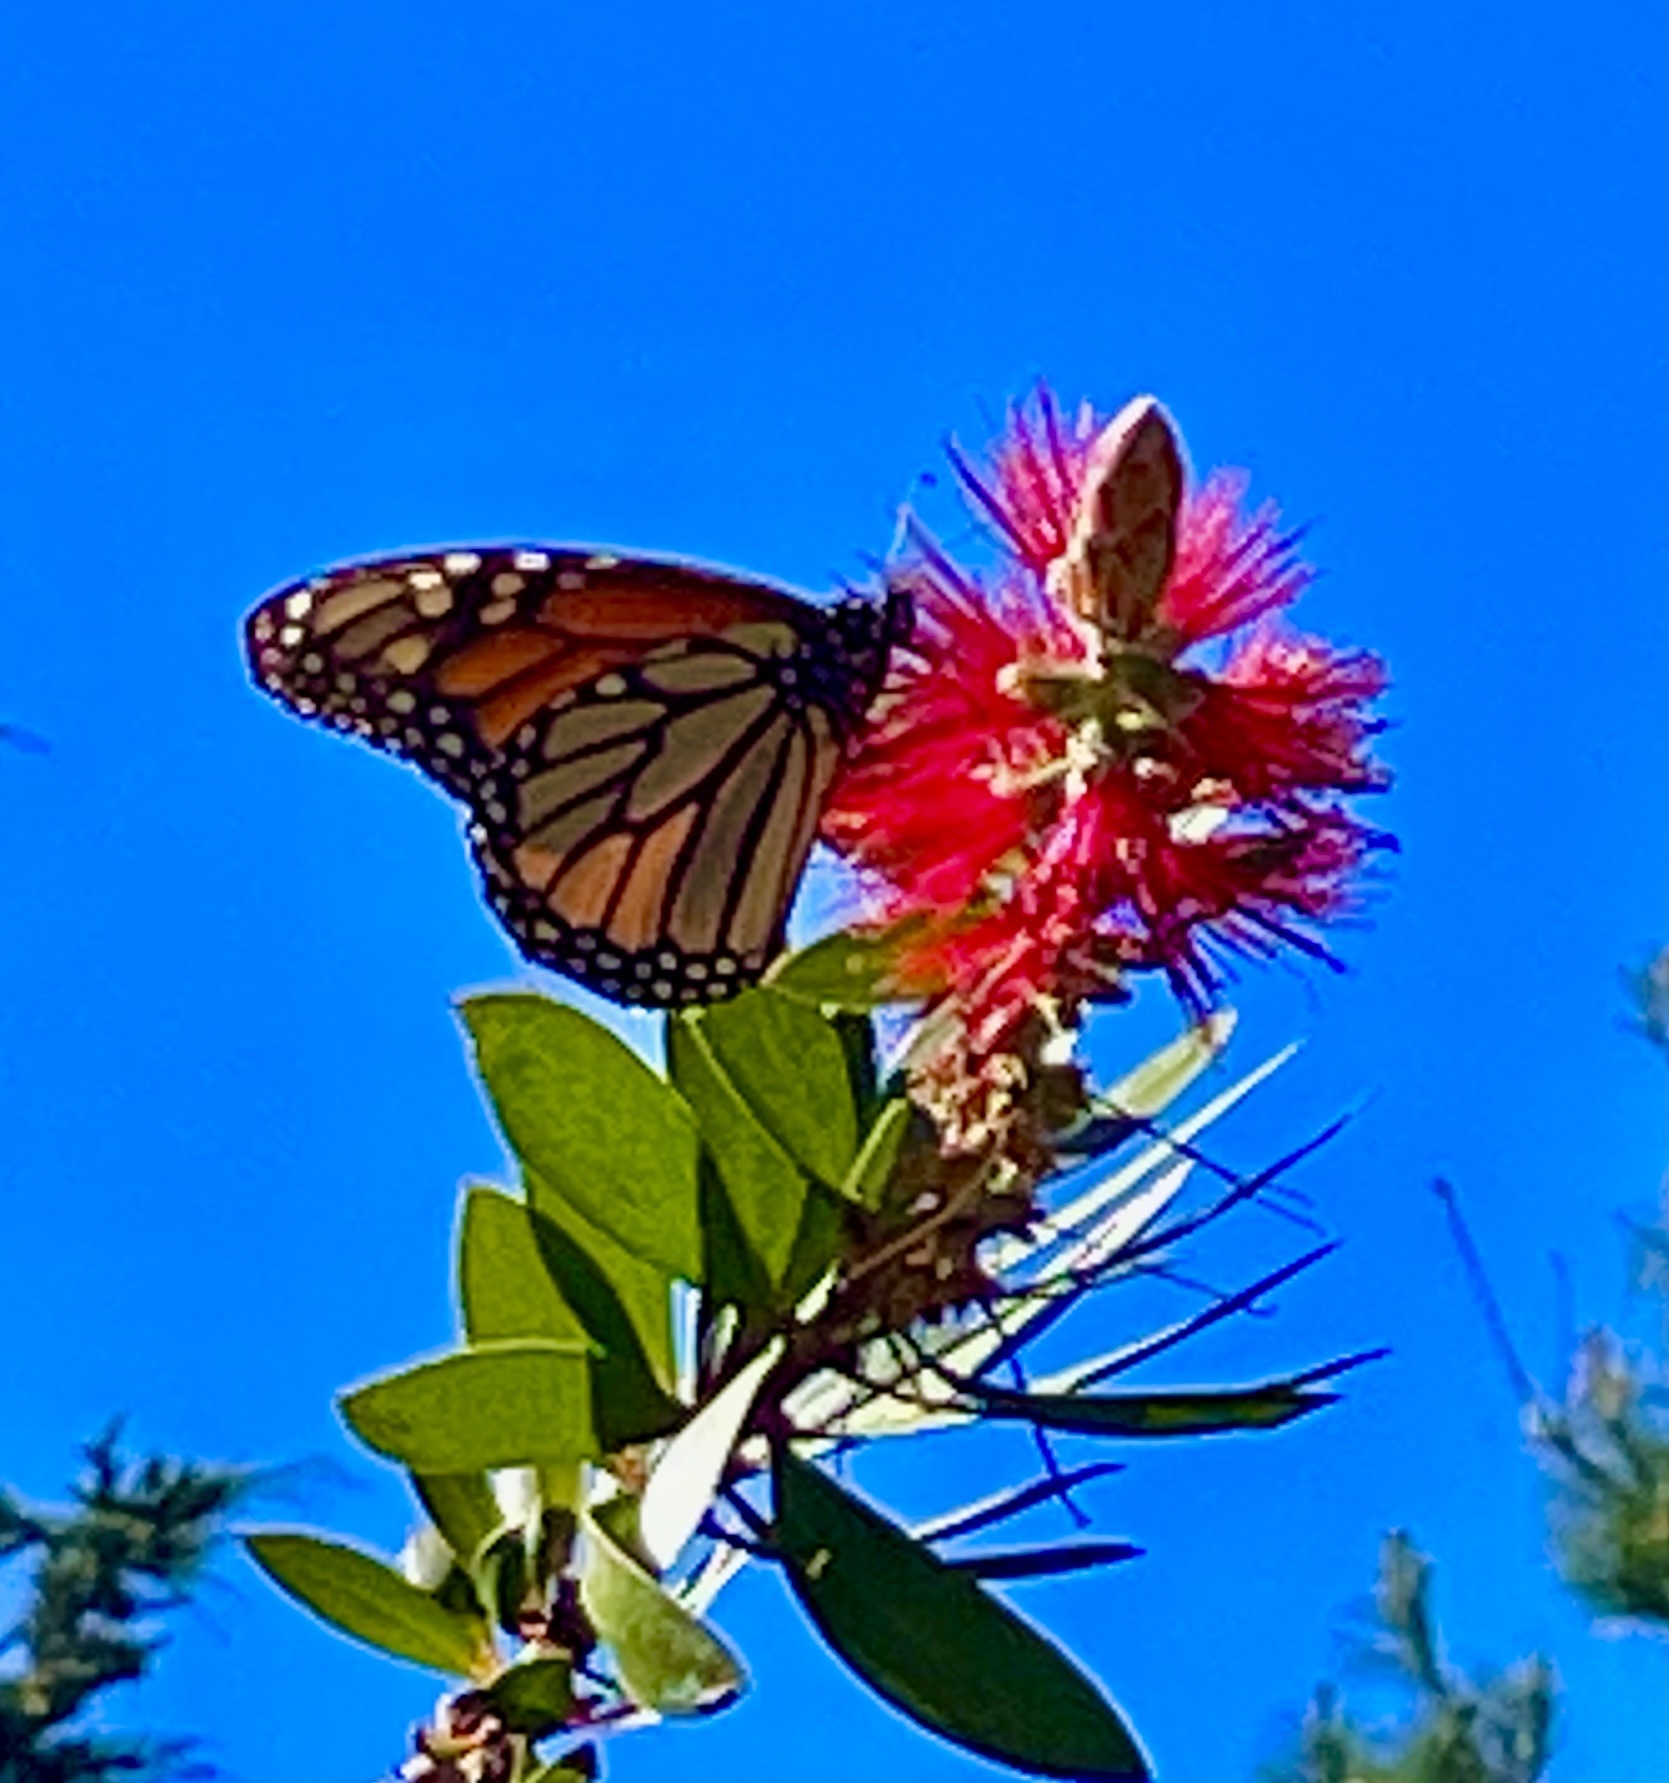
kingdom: Animalia
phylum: Arthropoda
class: Insecta
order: Lepidoptera
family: Nymphalidae
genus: Danaus
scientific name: Danaus plexippus
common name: Monarch
